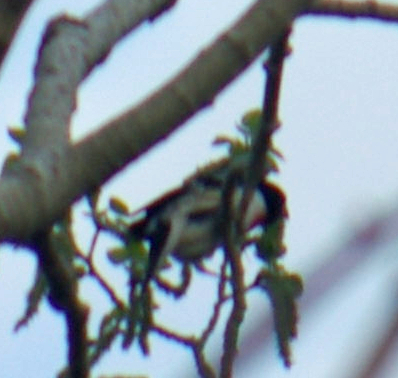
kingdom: Animalia
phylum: Chordata
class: Aves
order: Passeriformes
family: Cardinalidae
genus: Pheucticus
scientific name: Pheucticus ludovicianus
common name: Rose-breasted grosbeak
